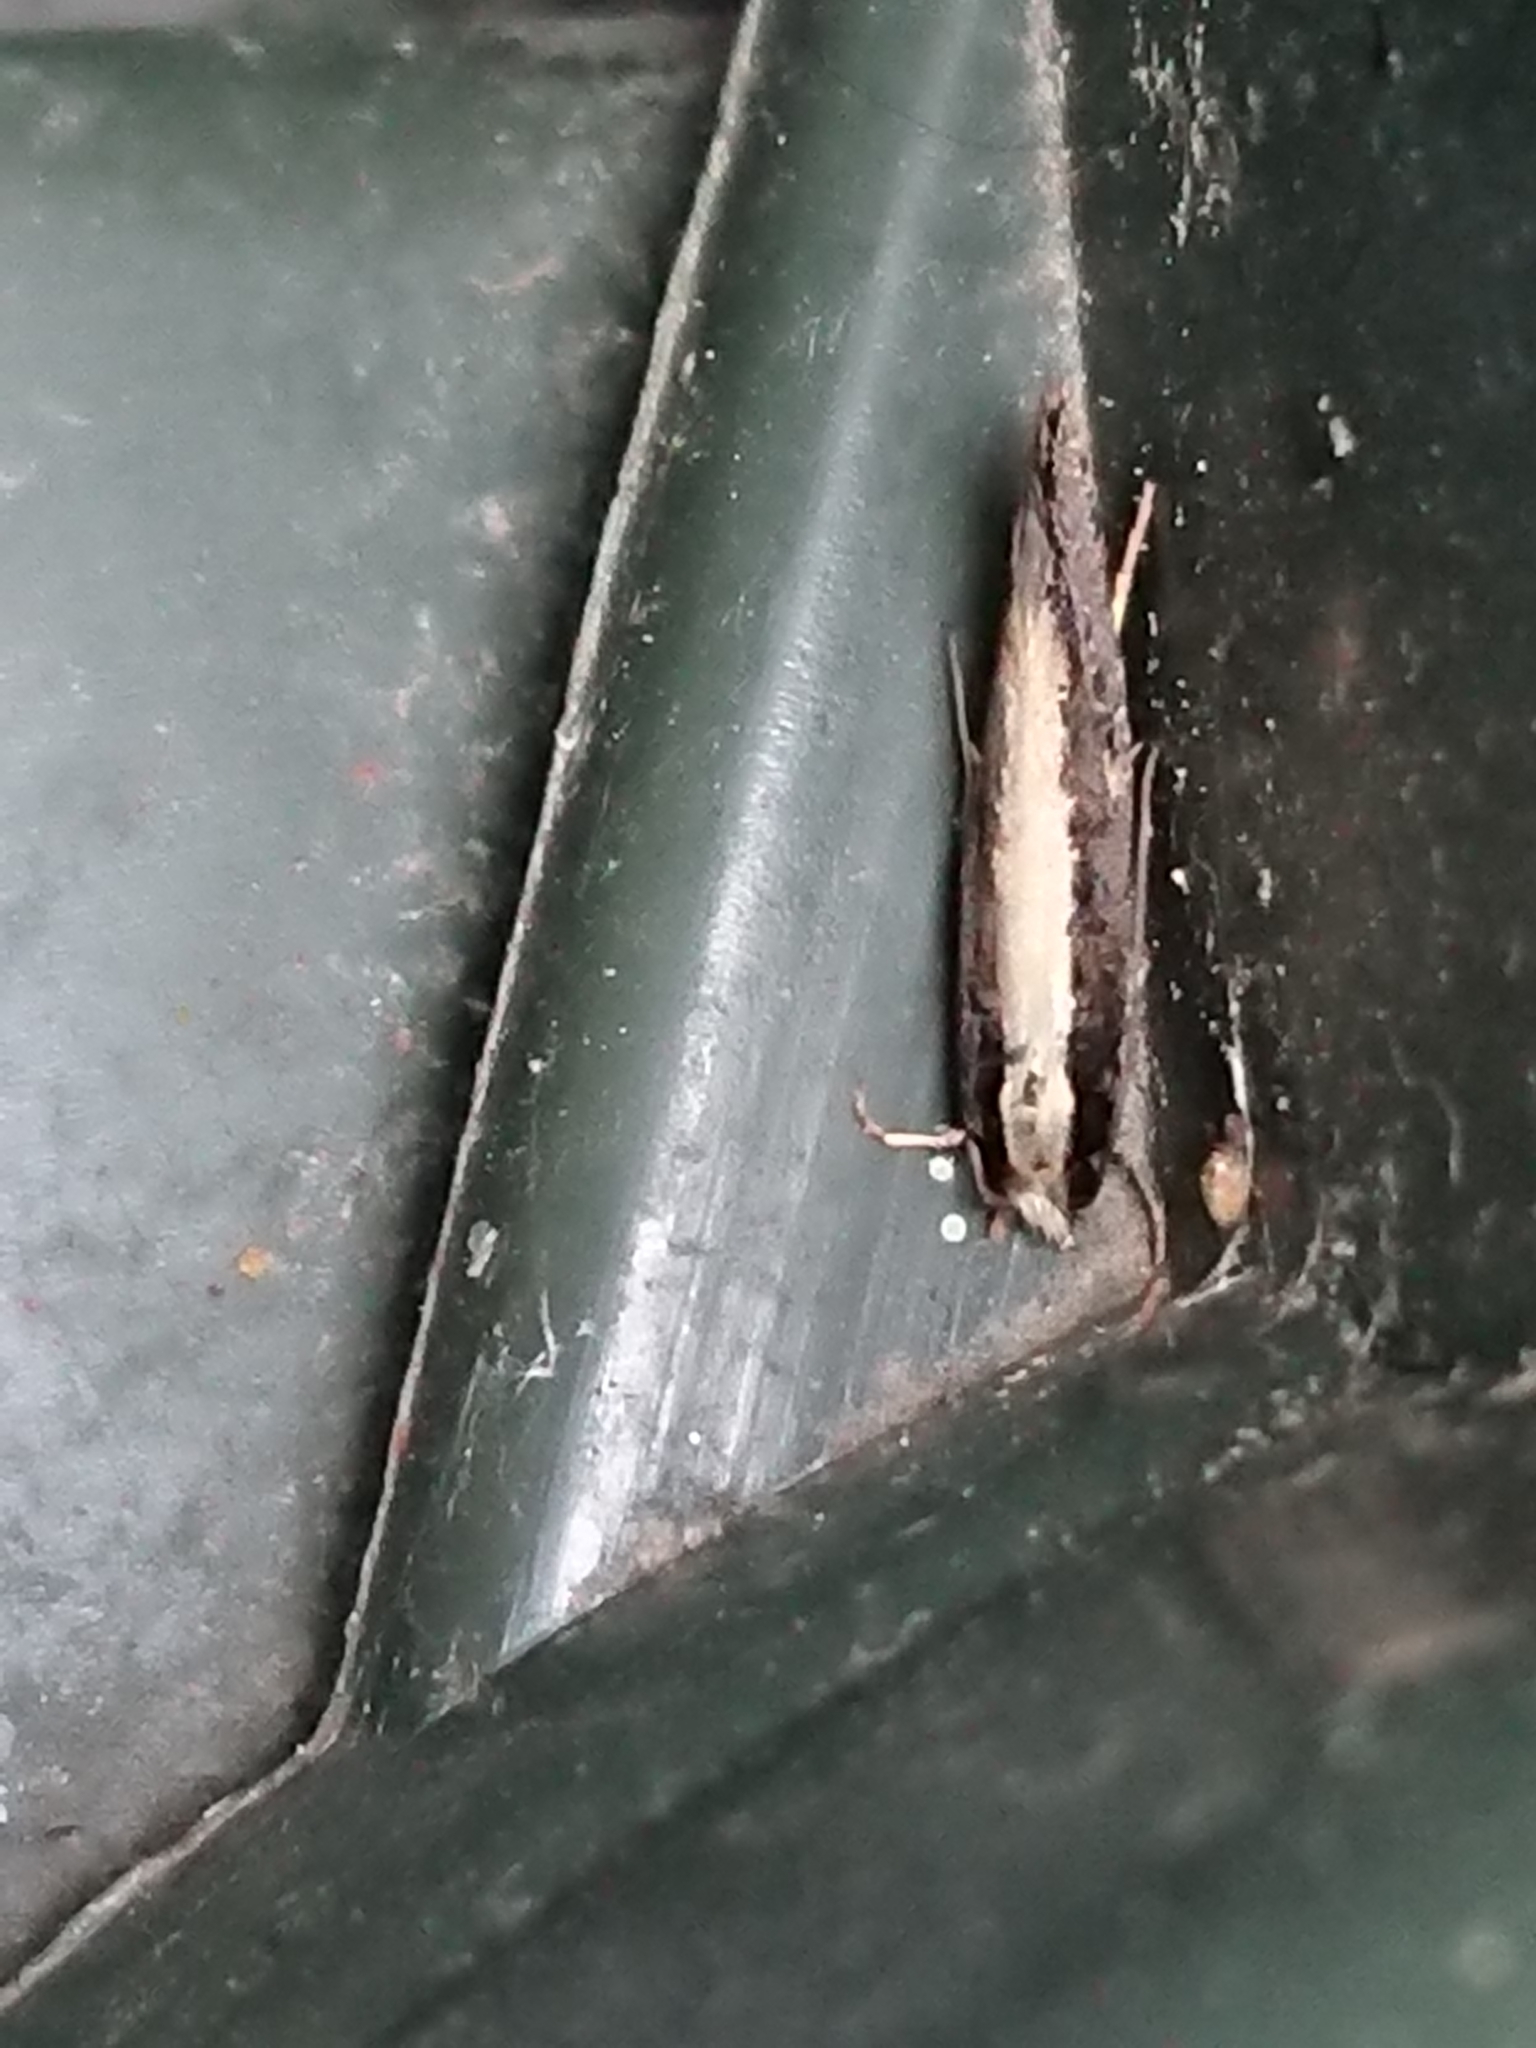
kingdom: Animalia
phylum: Arthropoda
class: Insecta
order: Lepidoptera
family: Tineidae
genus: Monopis
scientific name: Monopis ethelella
